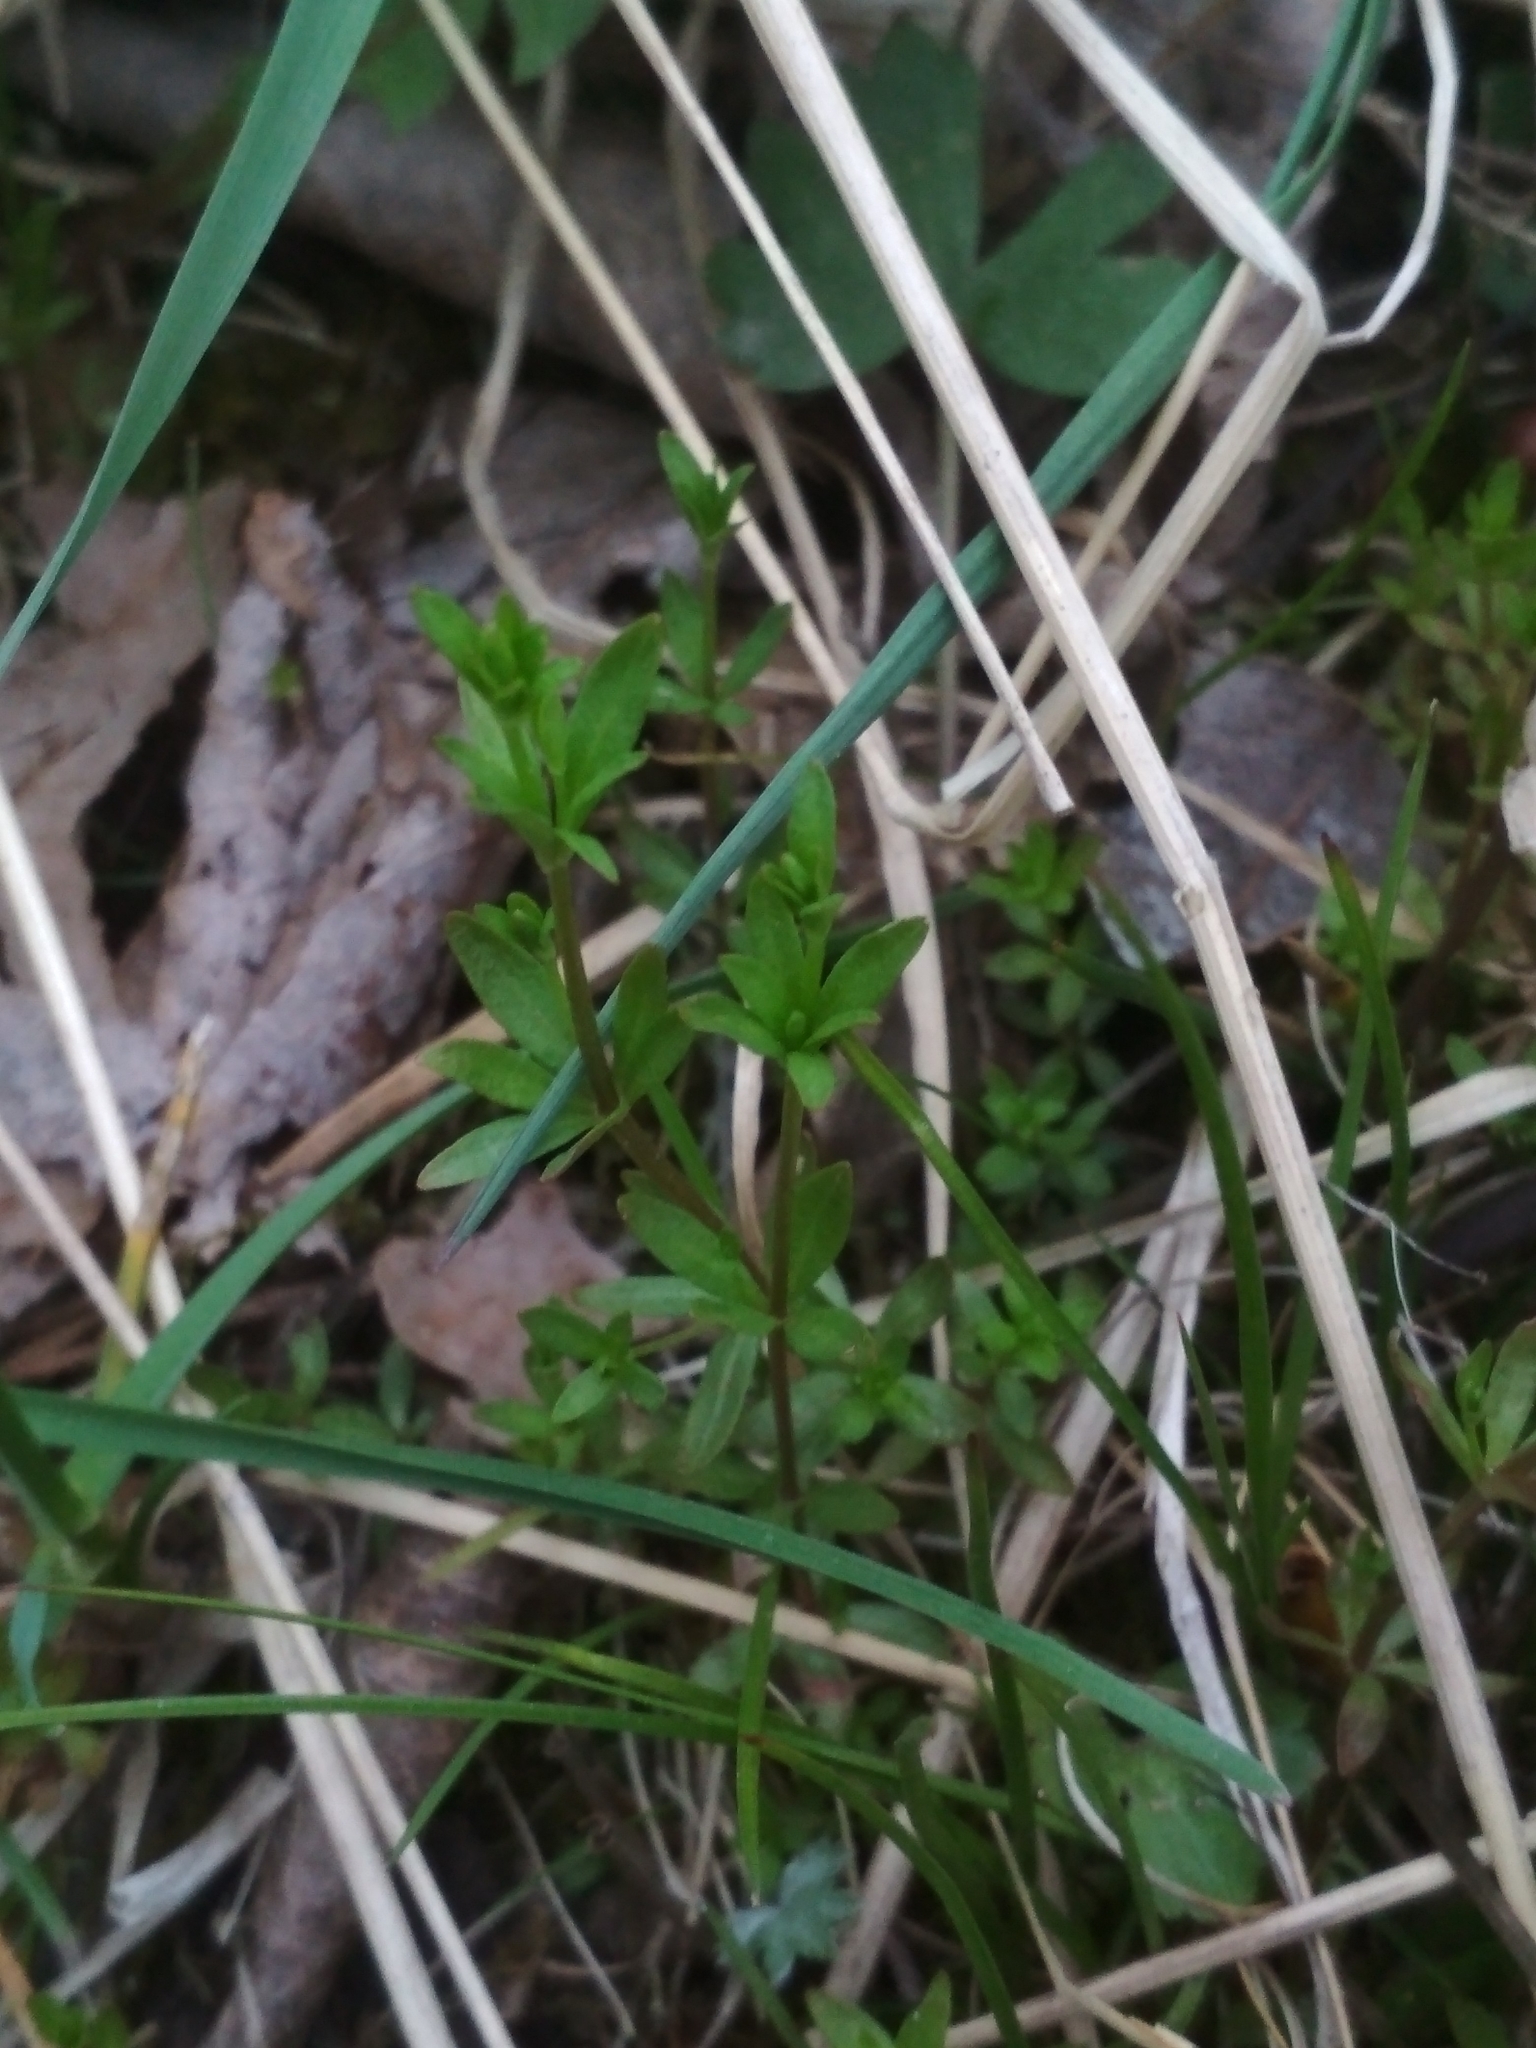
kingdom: Plantae
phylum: Tracheophyta
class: Magnoliopsida
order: Gentianales
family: Rubiaceae
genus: Galium
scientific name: Galium mollugo
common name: Hedge bedstraw
